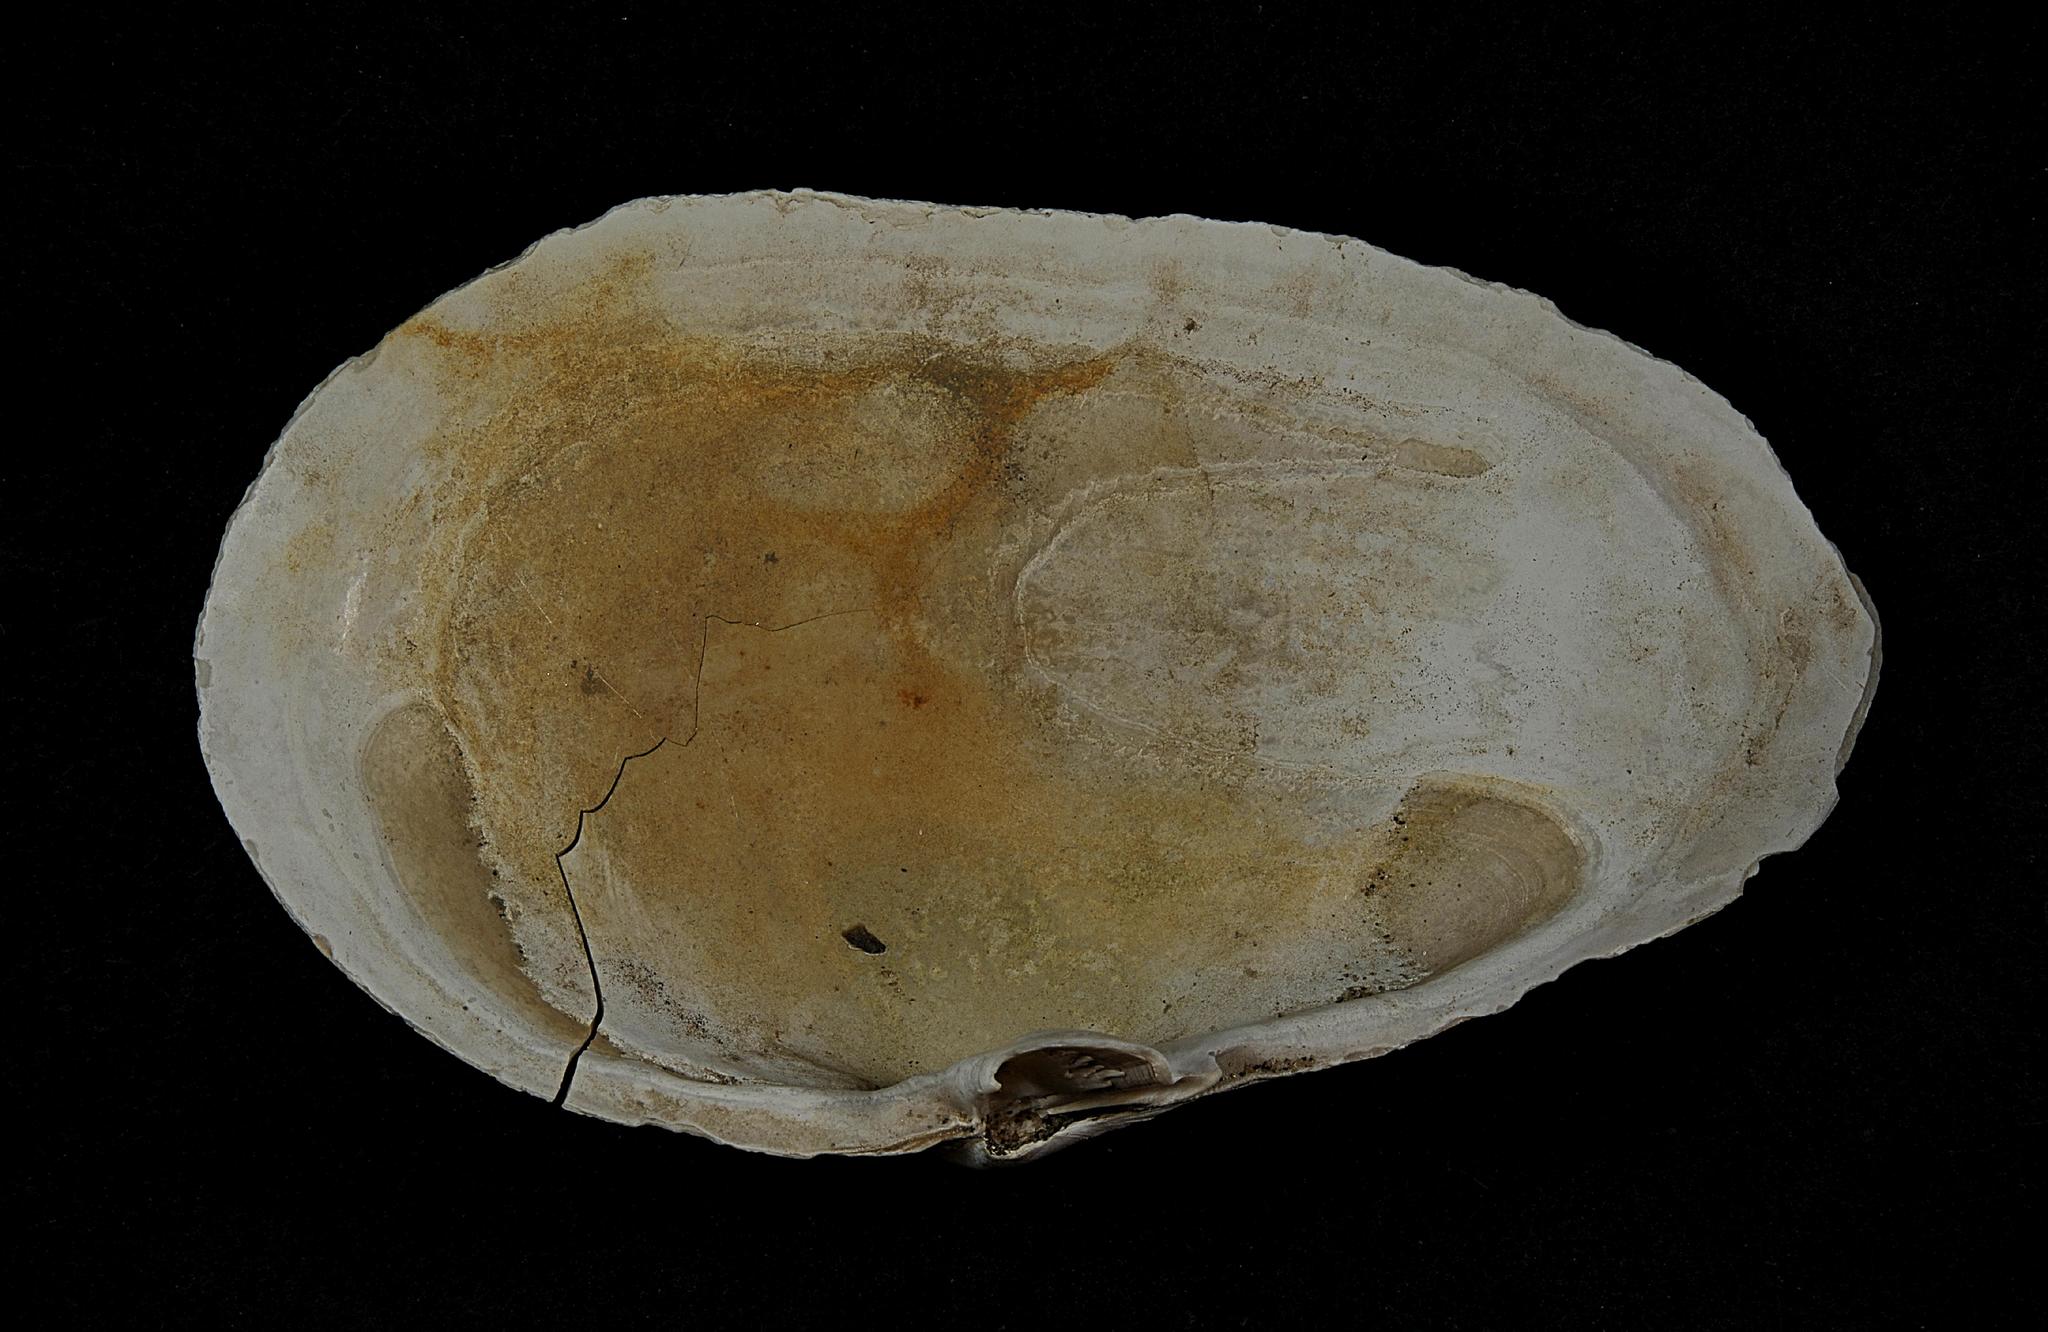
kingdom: Animalia
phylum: Mollusca
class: Bivalvia
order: Myida
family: Myidae
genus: Mya
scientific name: Mya arenaria
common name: Soft-shelled clam
